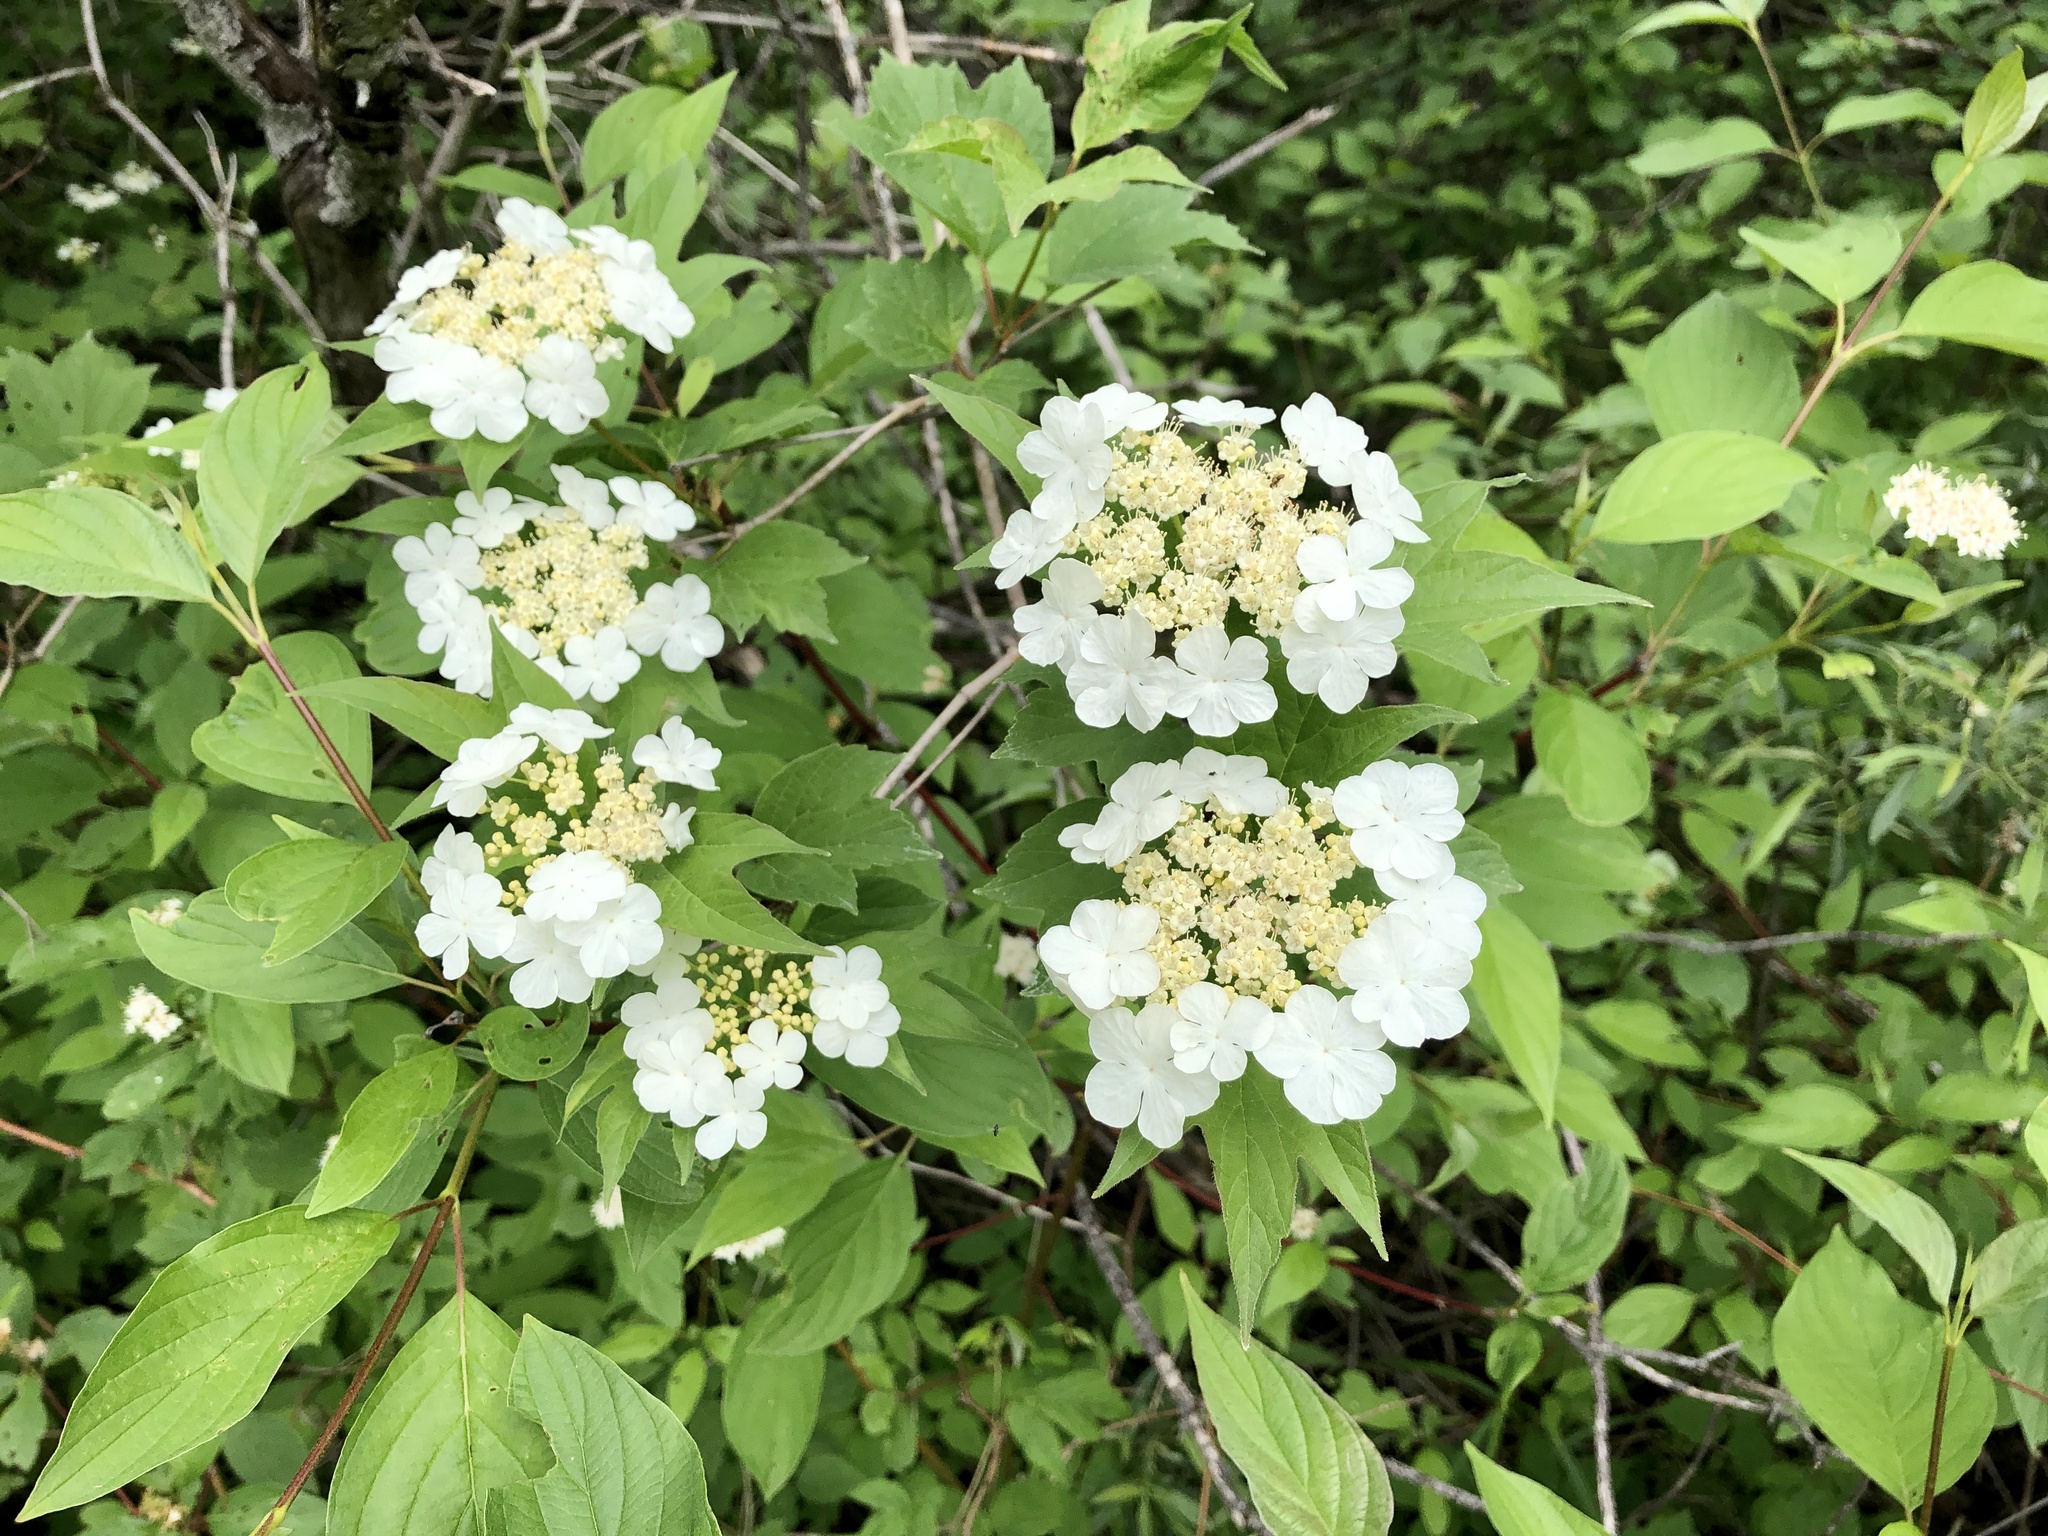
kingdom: Plantae
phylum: Tracheophyta
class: Magnoliopsida
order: Dipsacales
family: Viburnaceae
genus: Viburnum
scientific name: Viburnum opulus
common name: Guelder-rose
